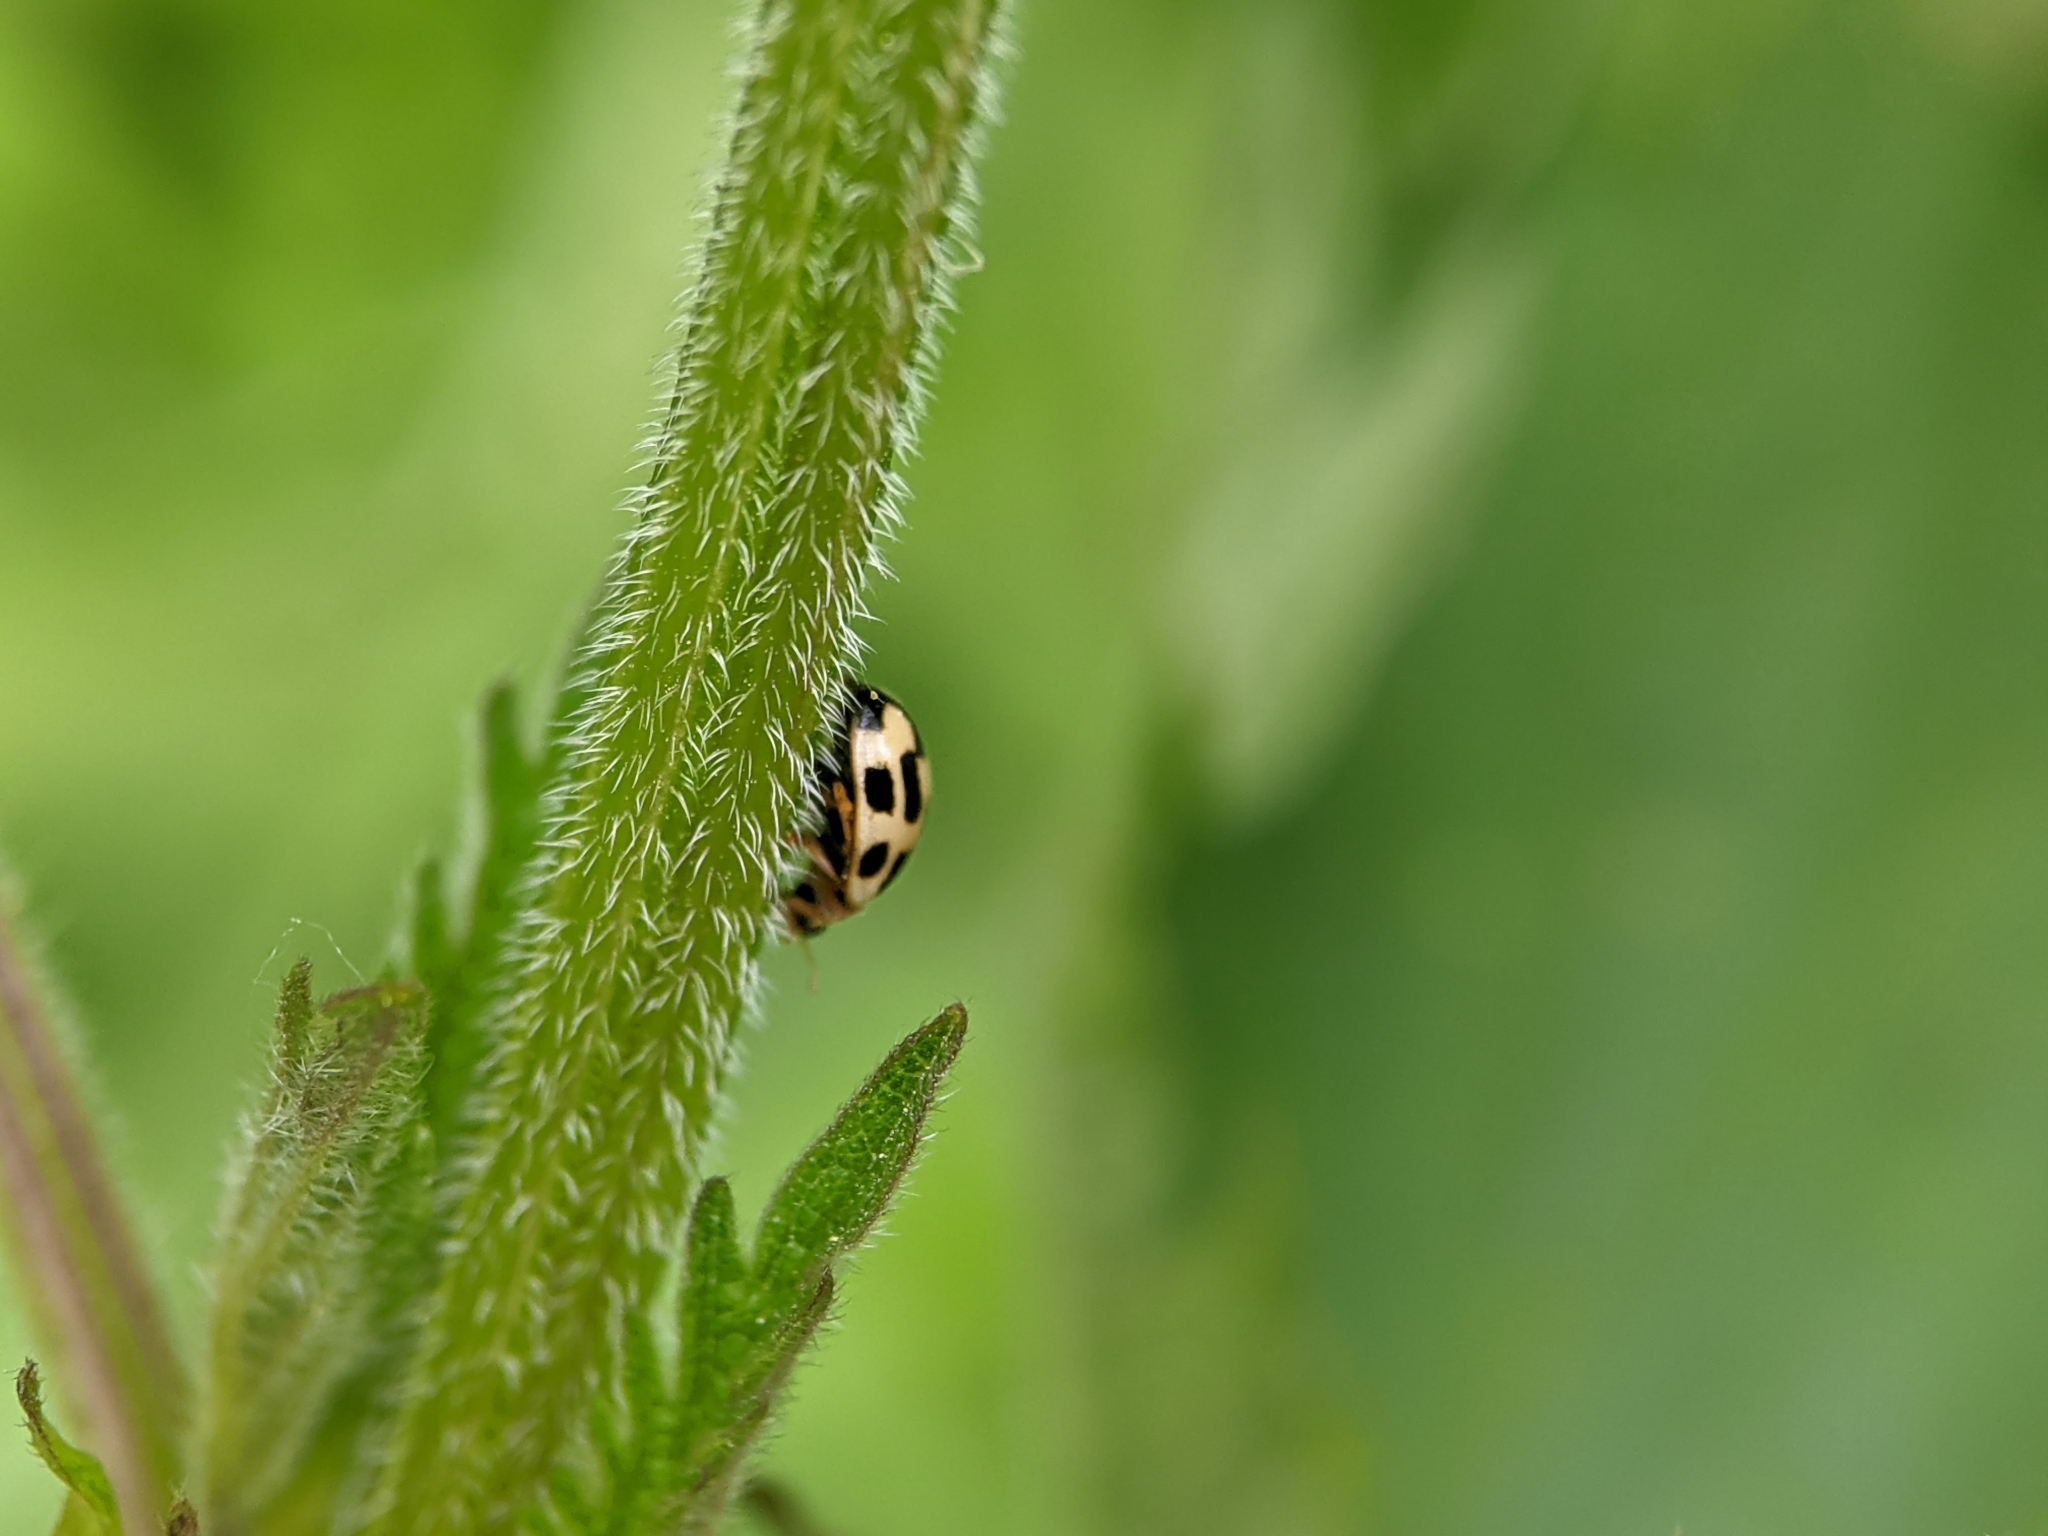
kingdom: Animalia
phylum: Arthropoda
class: Insecta
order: Coleoptera
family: Coccinellidae
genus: Propylaea
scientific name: Propylaea quatuordecimpunctata
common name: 14-spotted ladybird beetle
